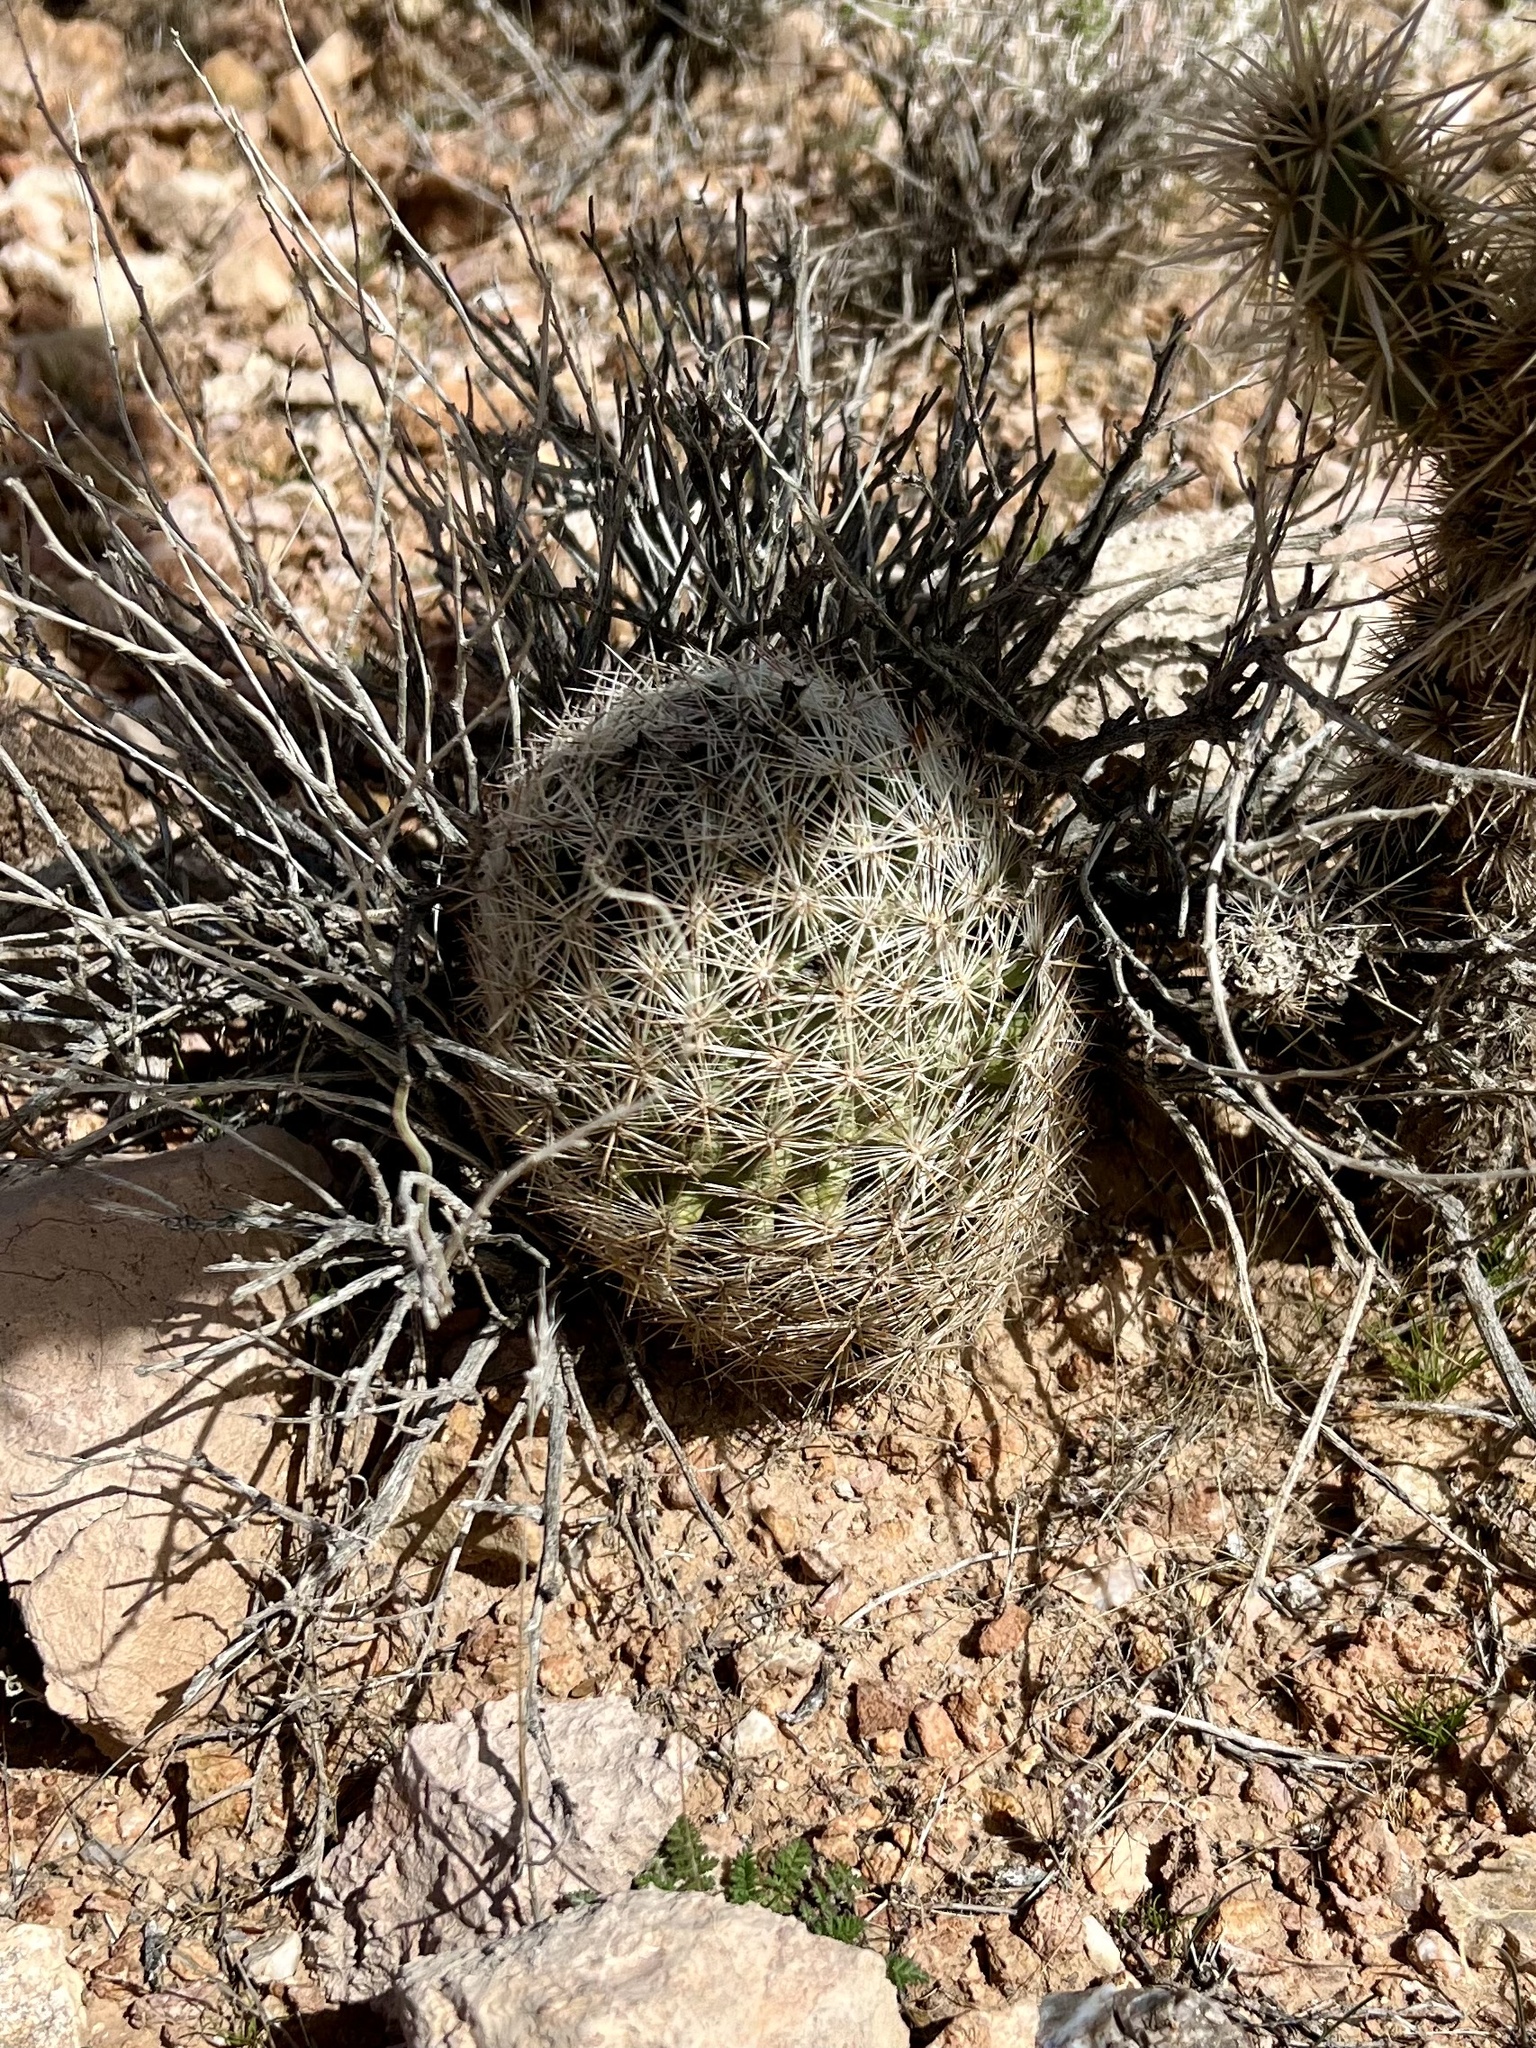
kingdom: Plantae
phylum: Tracheophyta
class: Magnoliopsida
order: Caryophyllales
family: Cactaceae
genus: Pelecyphora
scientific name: Pelecyphora dasyacantha
